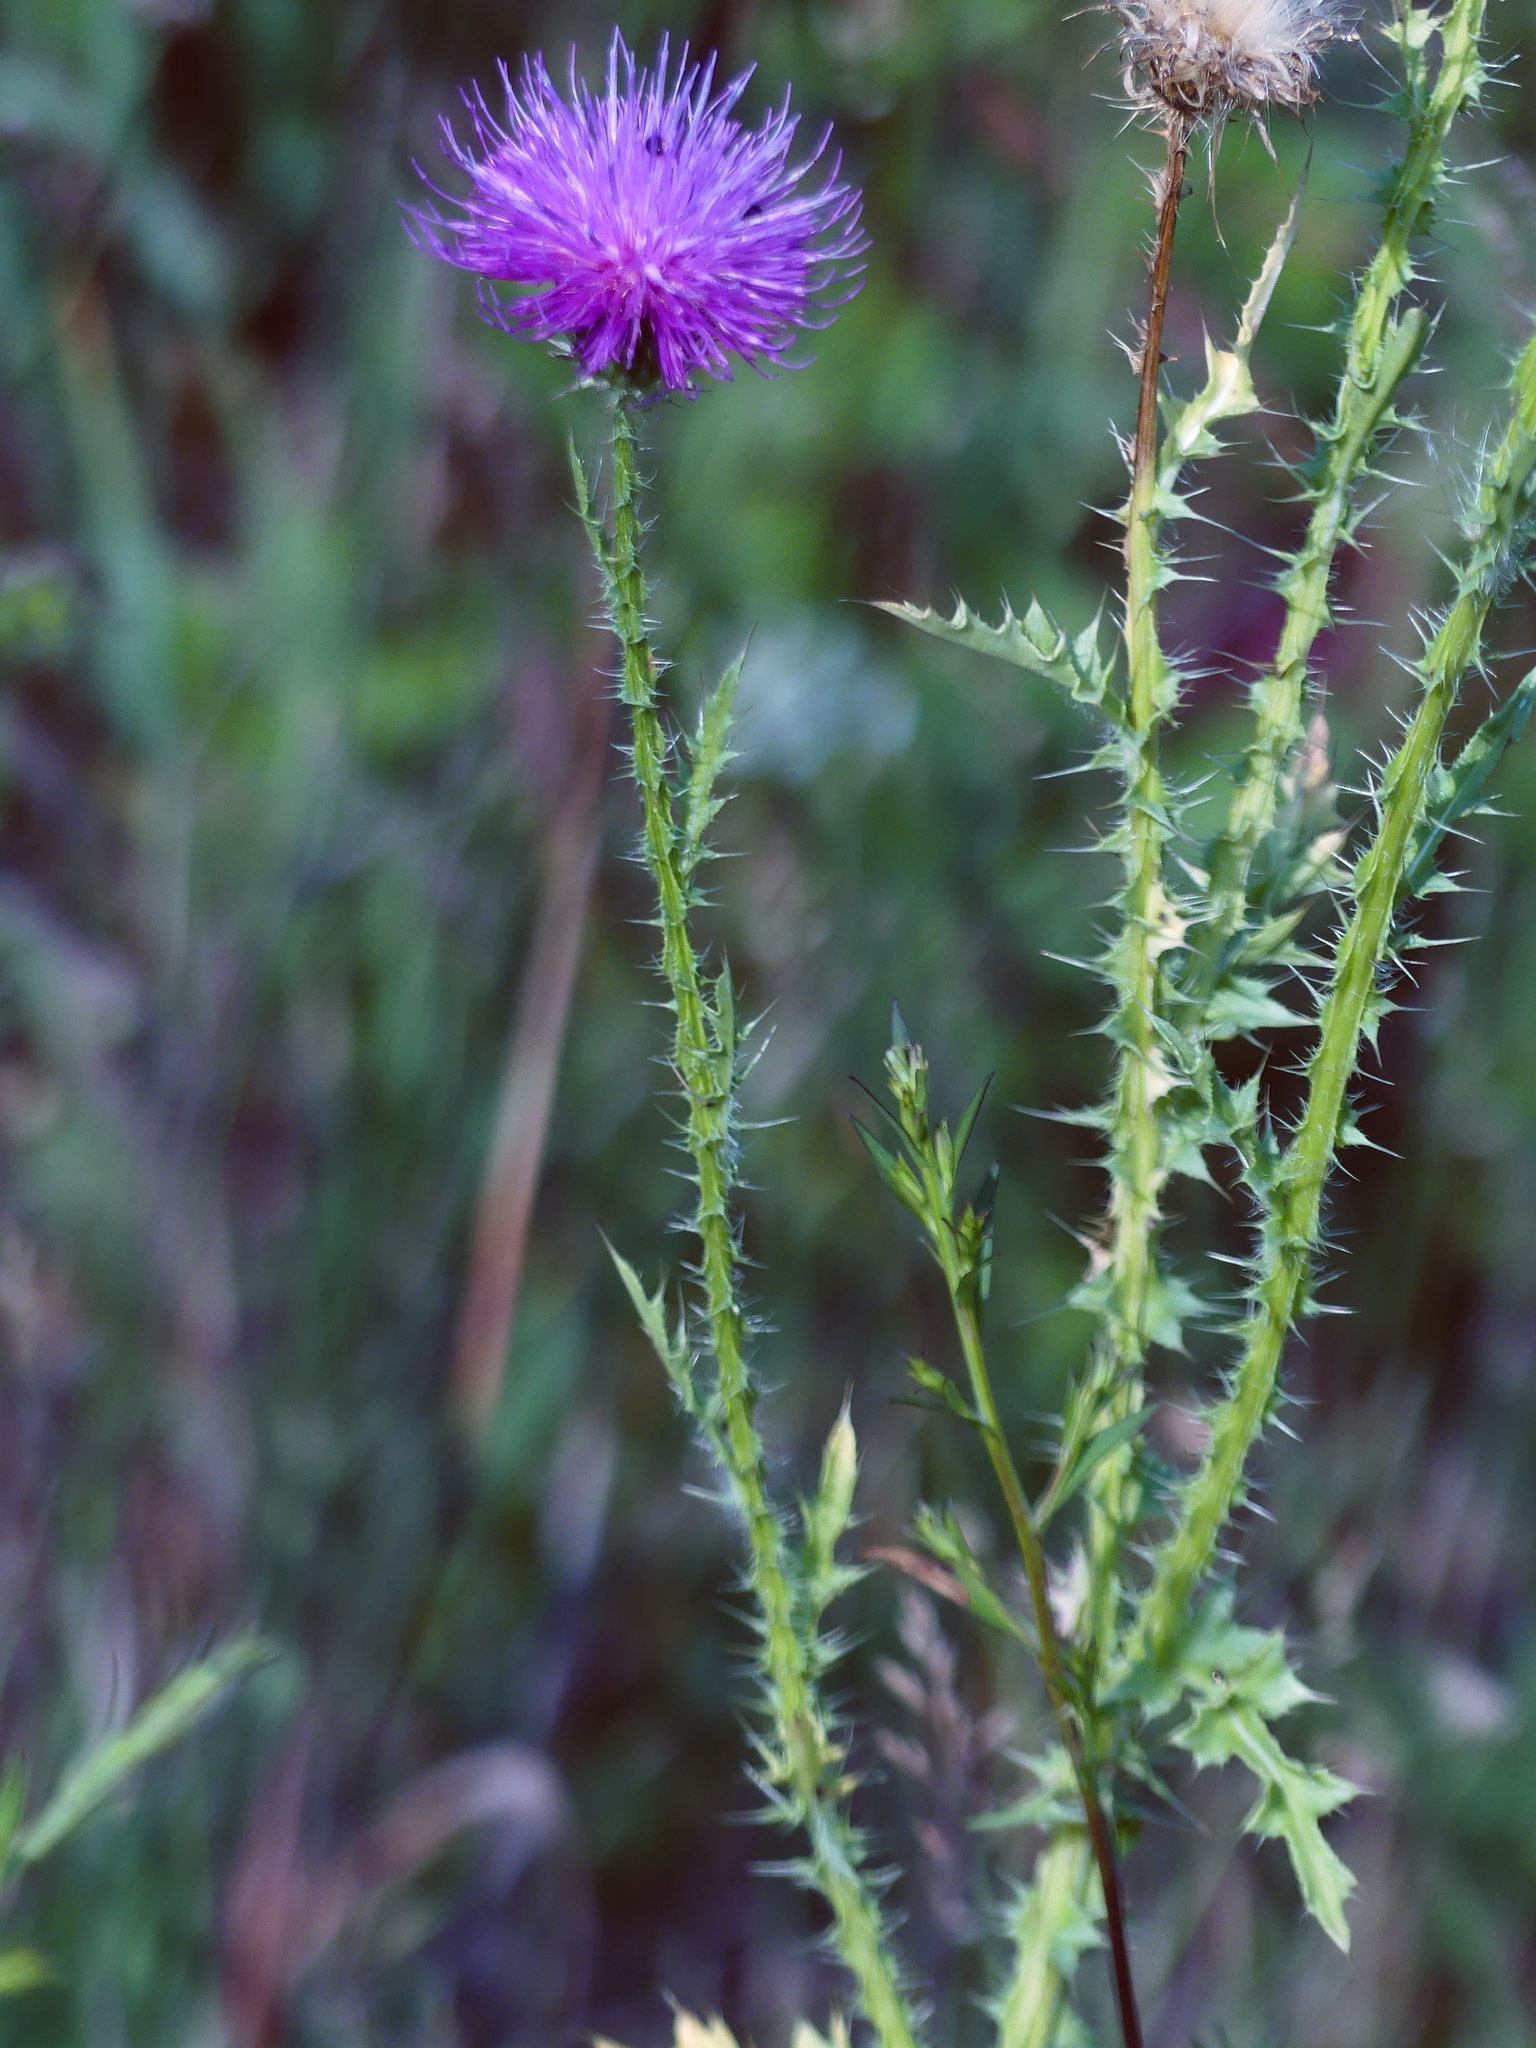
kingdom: Plantae
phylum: Tracheophyta
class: Magnoliopsida
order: Asterales
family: Asteraceae
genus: Carduus
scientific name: Carduus acanthoides
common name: Plumeless thistle
